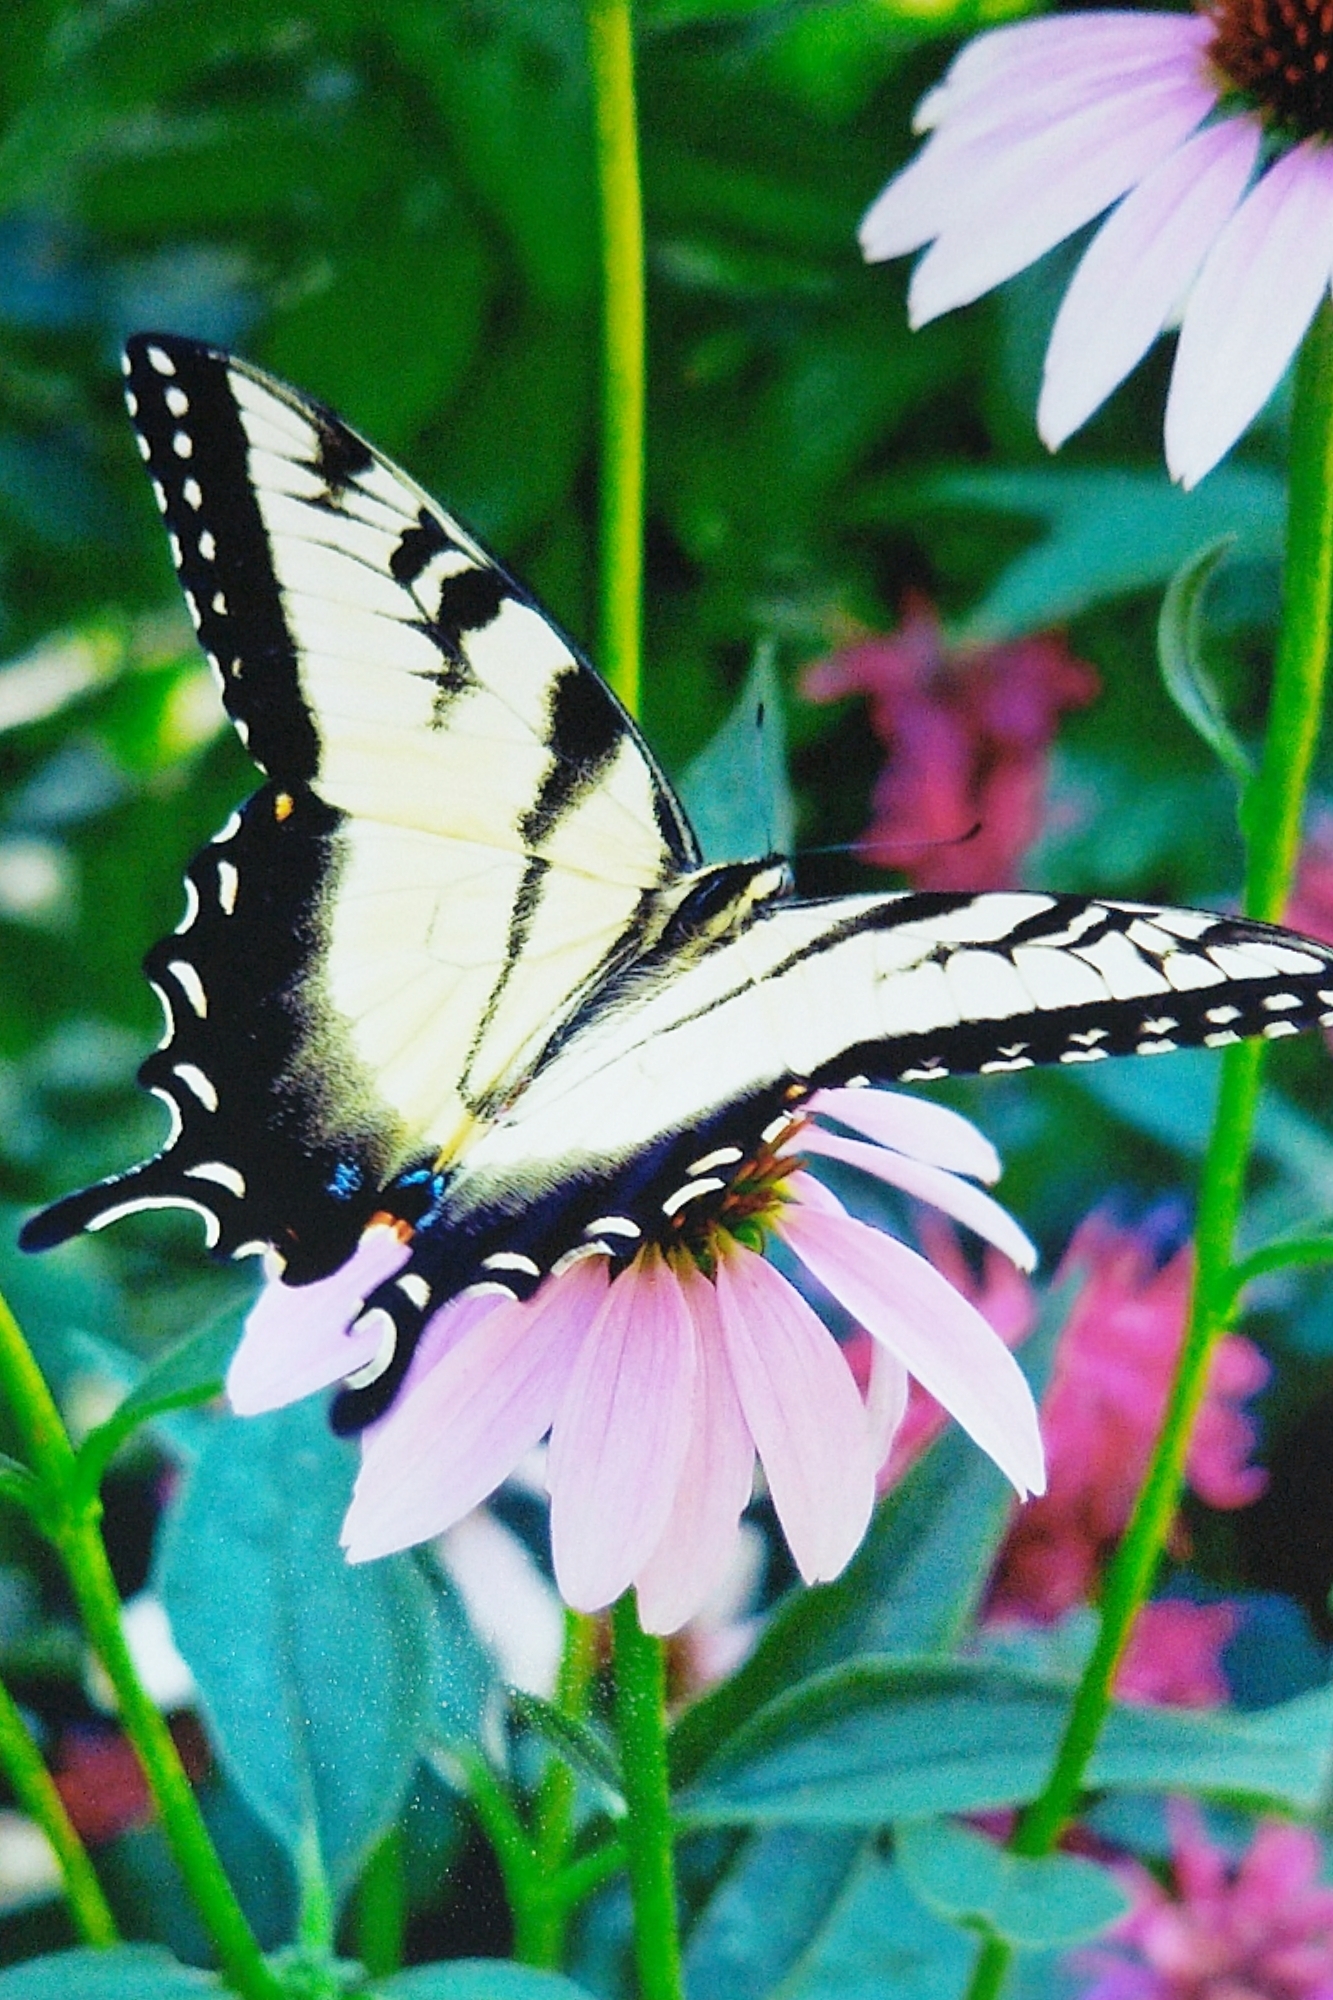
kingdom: Animalia
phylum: Arthropoda
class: Insecta
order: Lepidoptera
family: Papilionidae
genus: Papilio
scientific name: Papilio glaucus
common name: Tiger swallowtail
